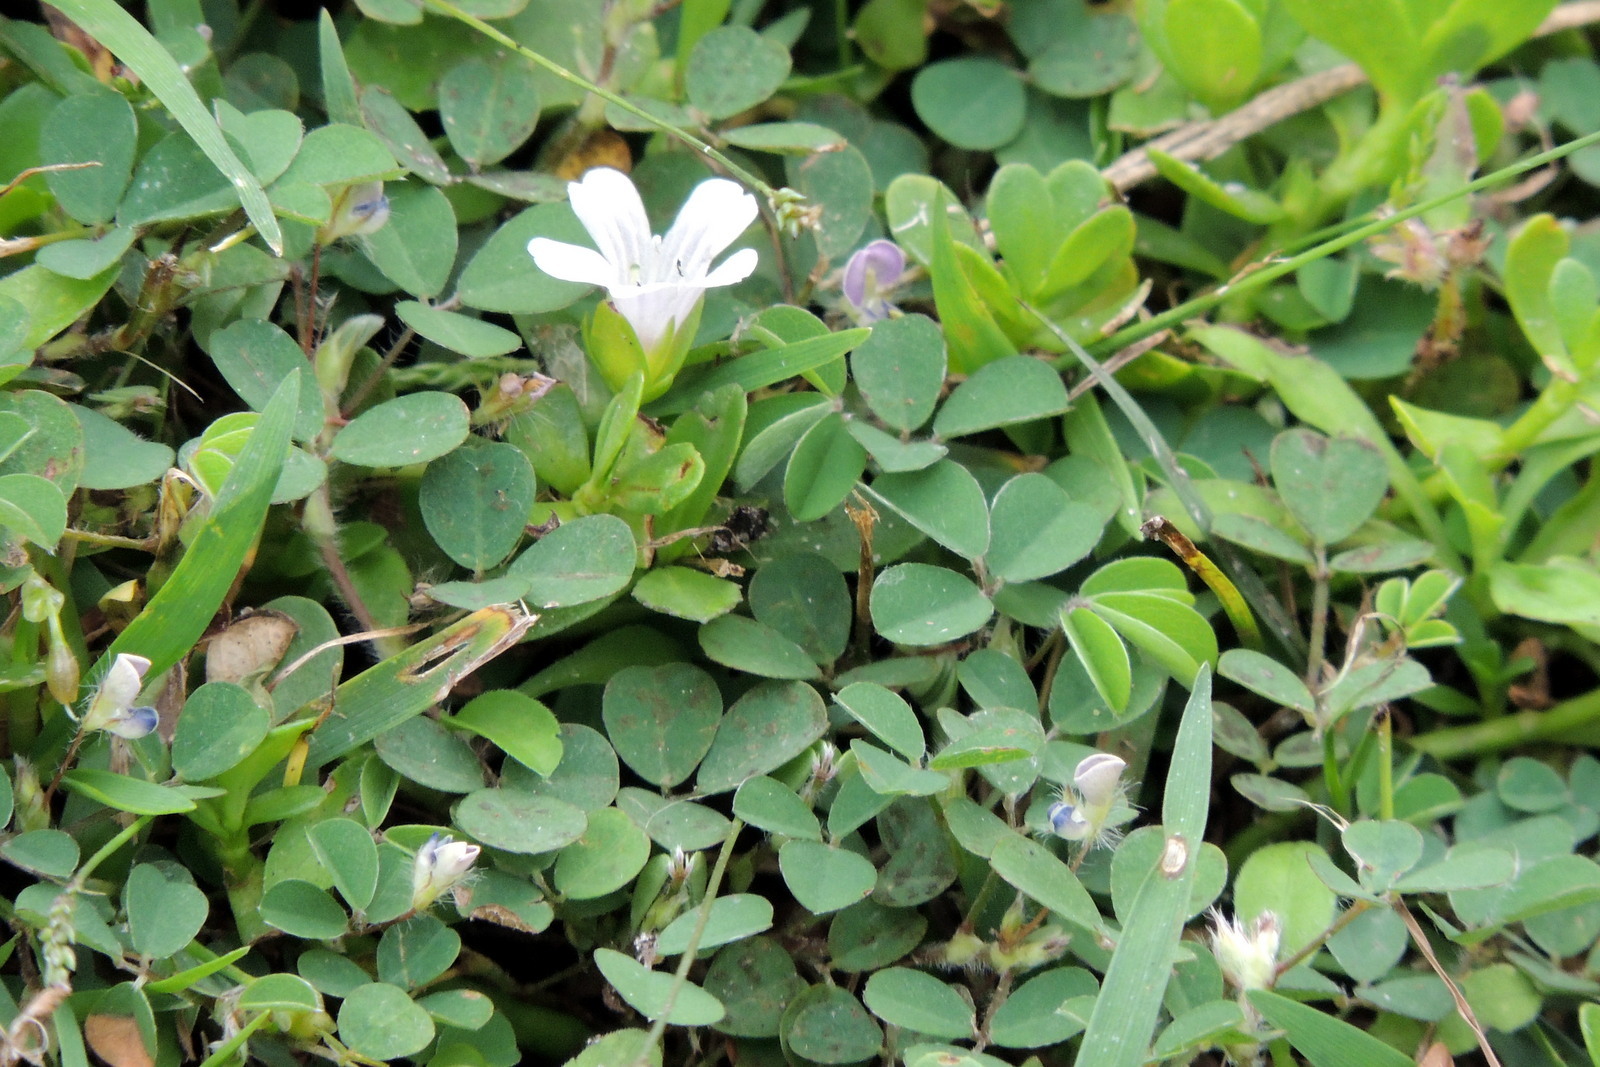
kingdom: Plantae
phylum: Tracheophyta
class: Magnoliopsida
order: Fabales
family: Fabaceae
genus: Grona
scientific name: Grona triflora
